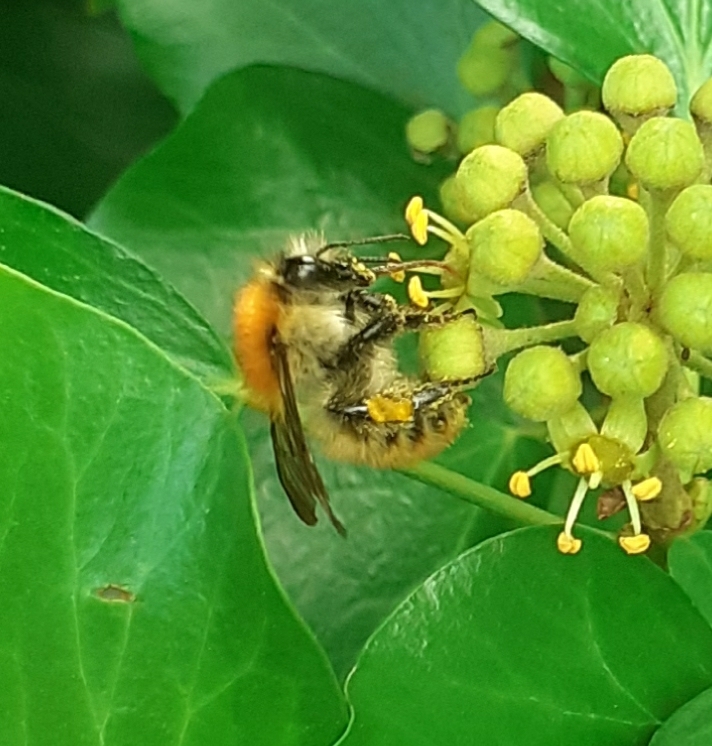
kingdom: Animalia
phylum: Arthropoda
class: Insecta
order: Hymenoptera
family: Apidae
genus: Bombus
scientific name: Bombus pascuorum
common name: Common carder bee
